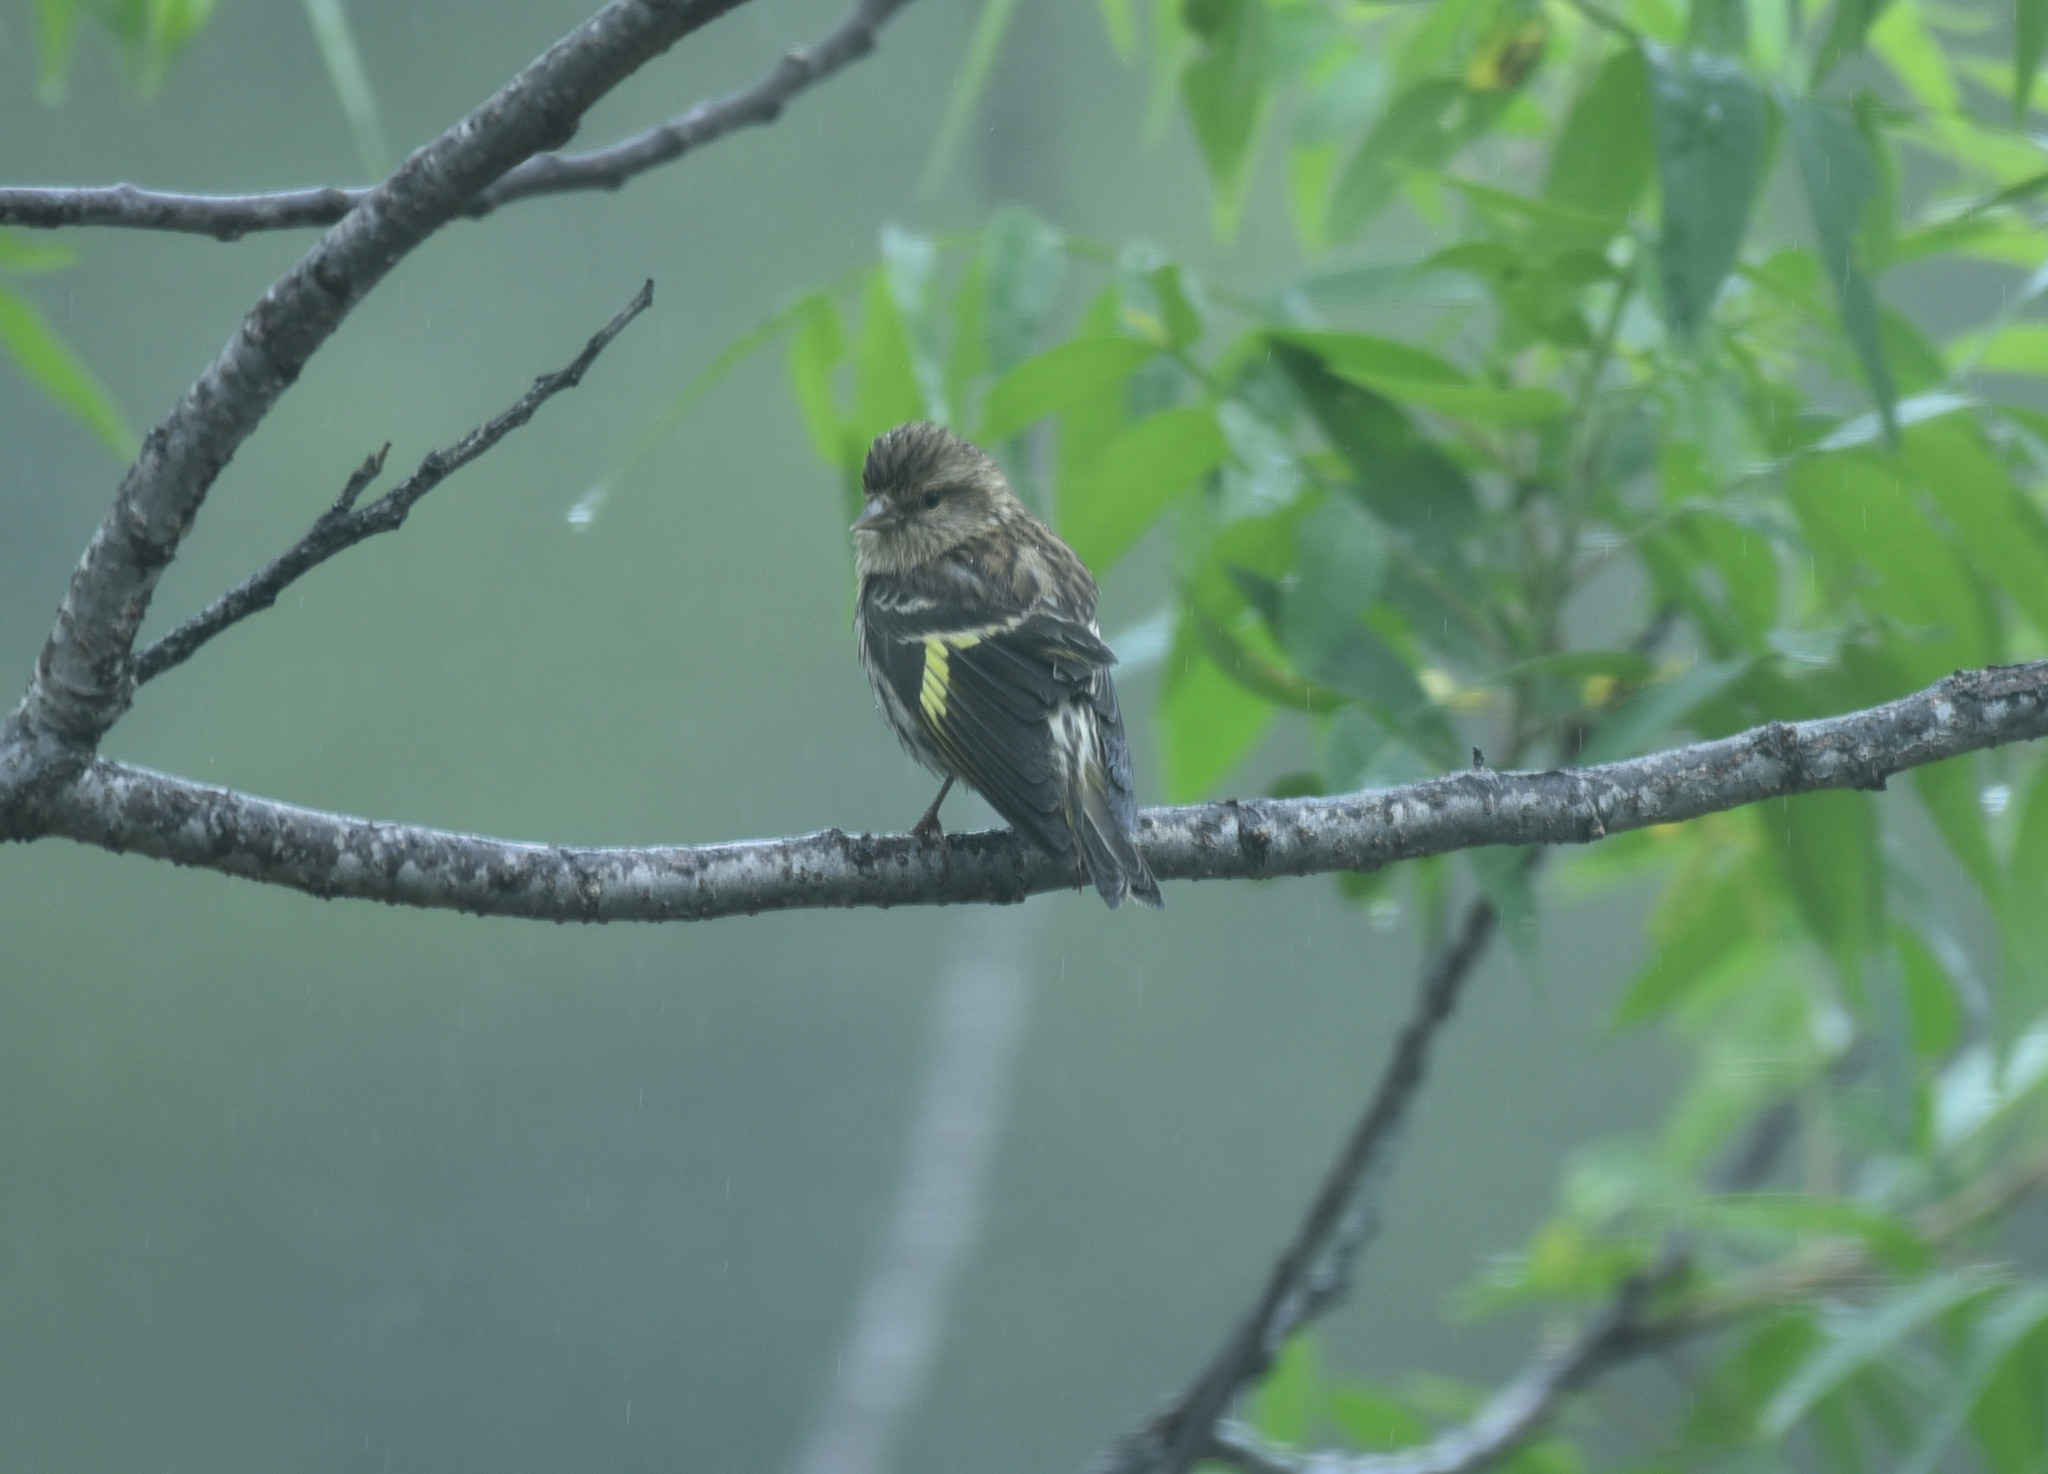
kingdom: Animalia
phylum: Chordata
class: Aves
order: Passeriformes
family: Fringillidae
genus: Spinus
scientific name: Spinus pinus
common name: Pine siskin
